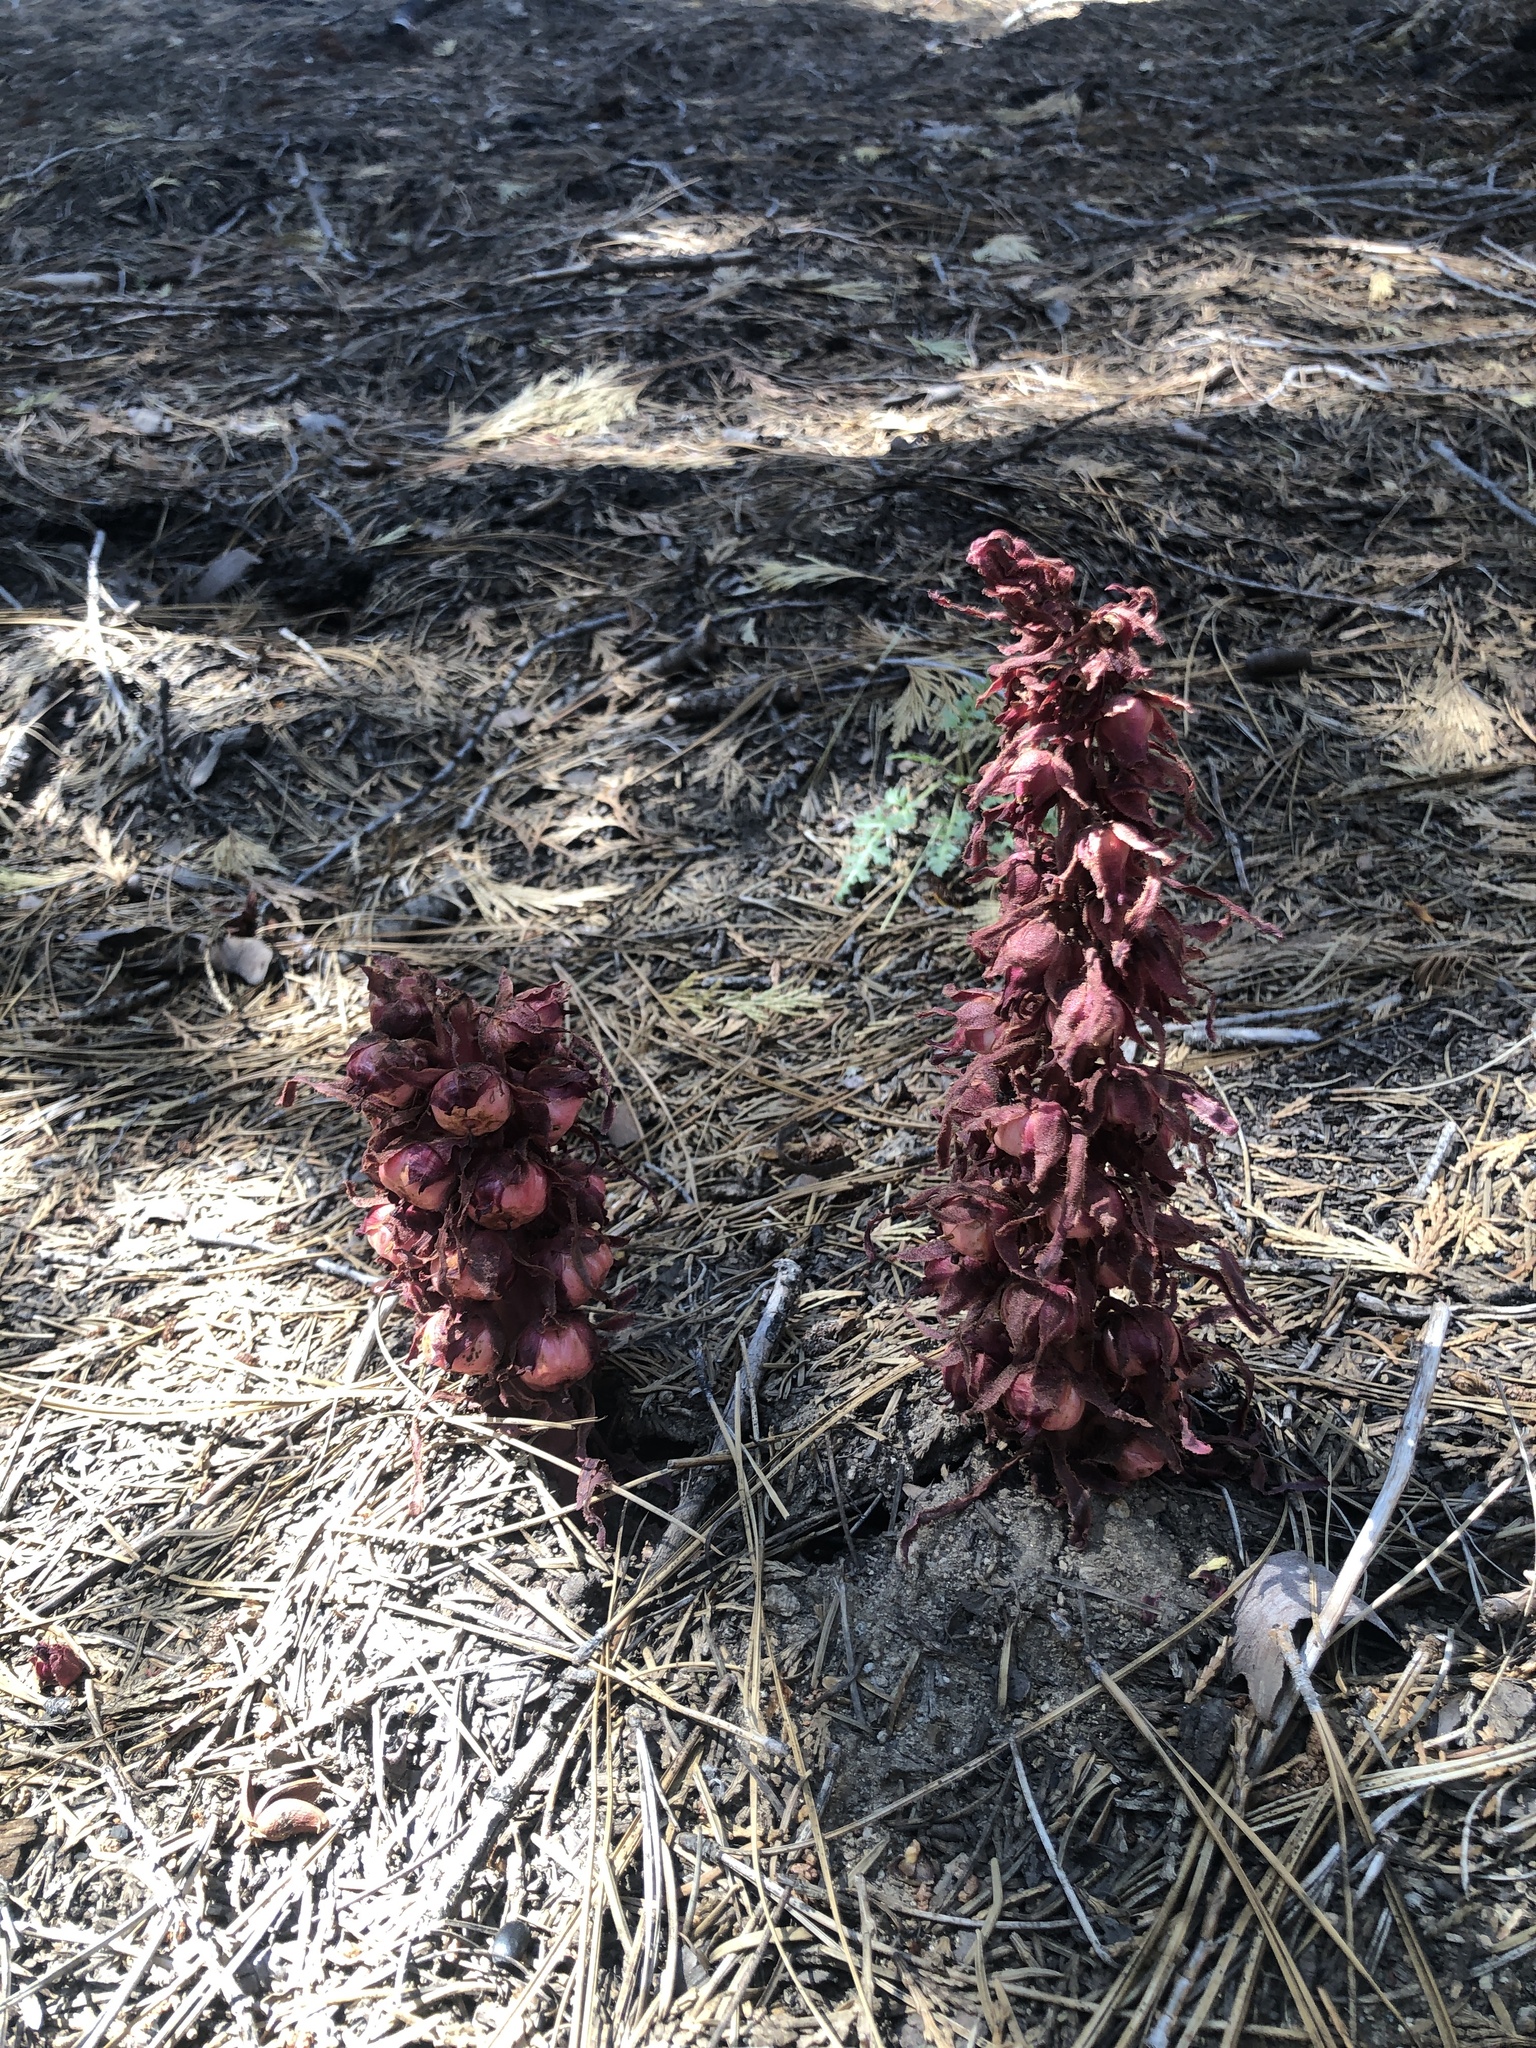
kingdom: Plantae
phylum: Tracheophyta
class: Magnoliopsida
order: Ericales
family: Ericaceae
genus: Sarcodes
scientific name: Sarcodes sanguinea
